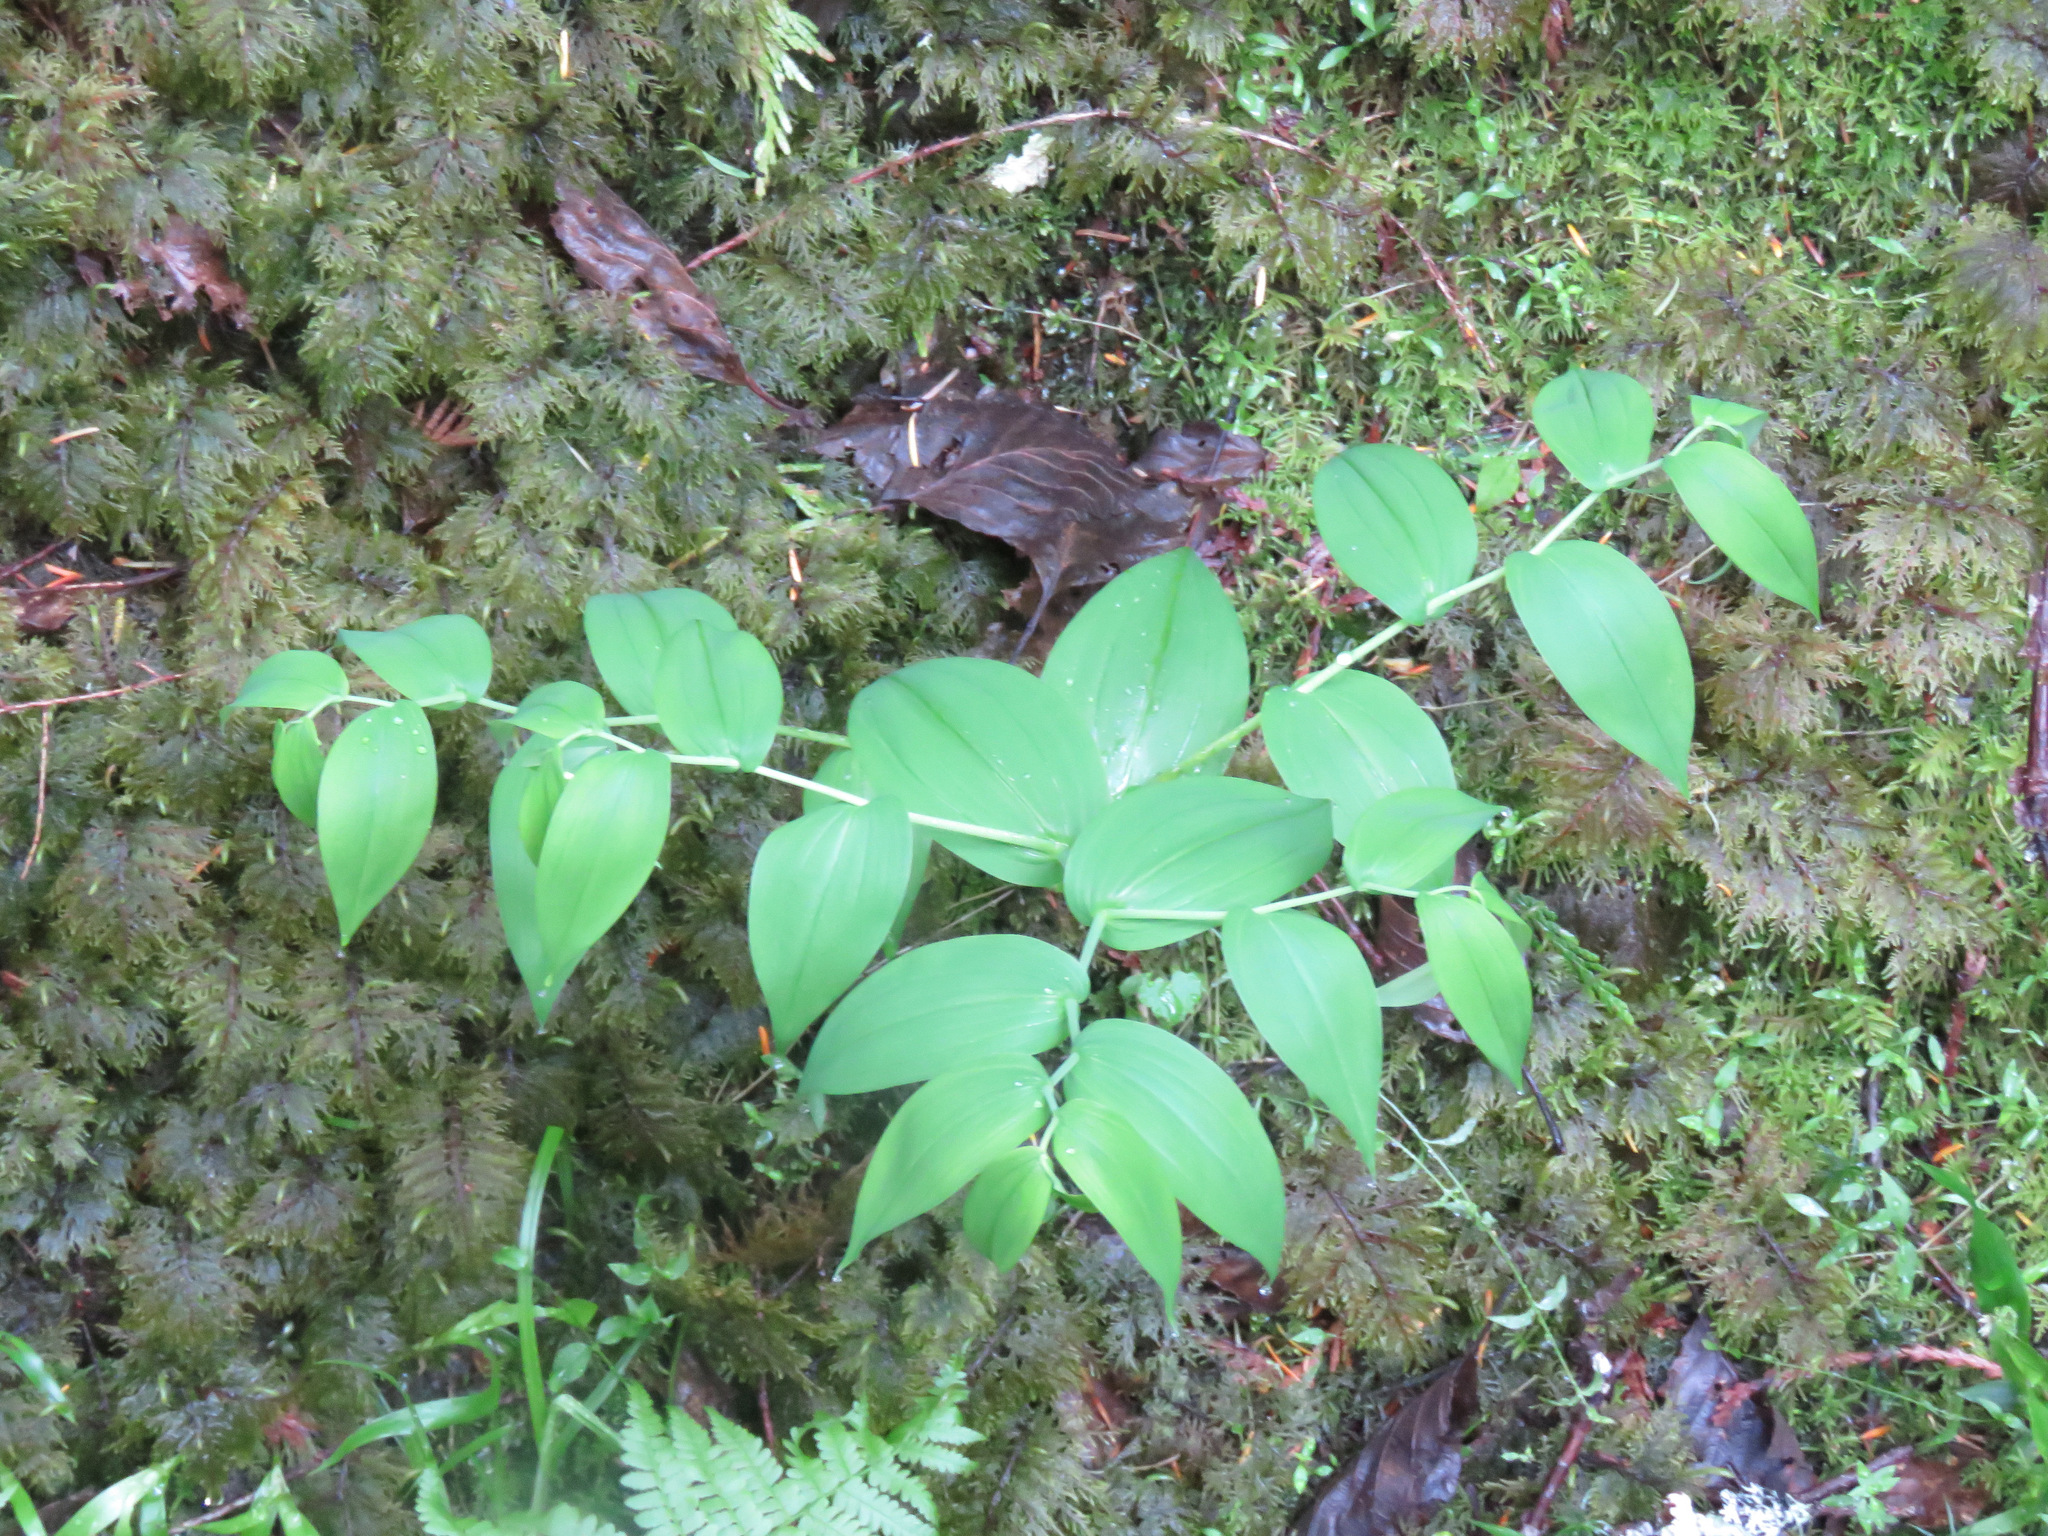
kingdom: Plantae
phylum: Tracheophyta
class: Liliopsida
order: Liliales
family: Liliaceae
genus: Streptopus
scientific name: Streptopus amplexifolius
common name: Clasp twisted stalk
